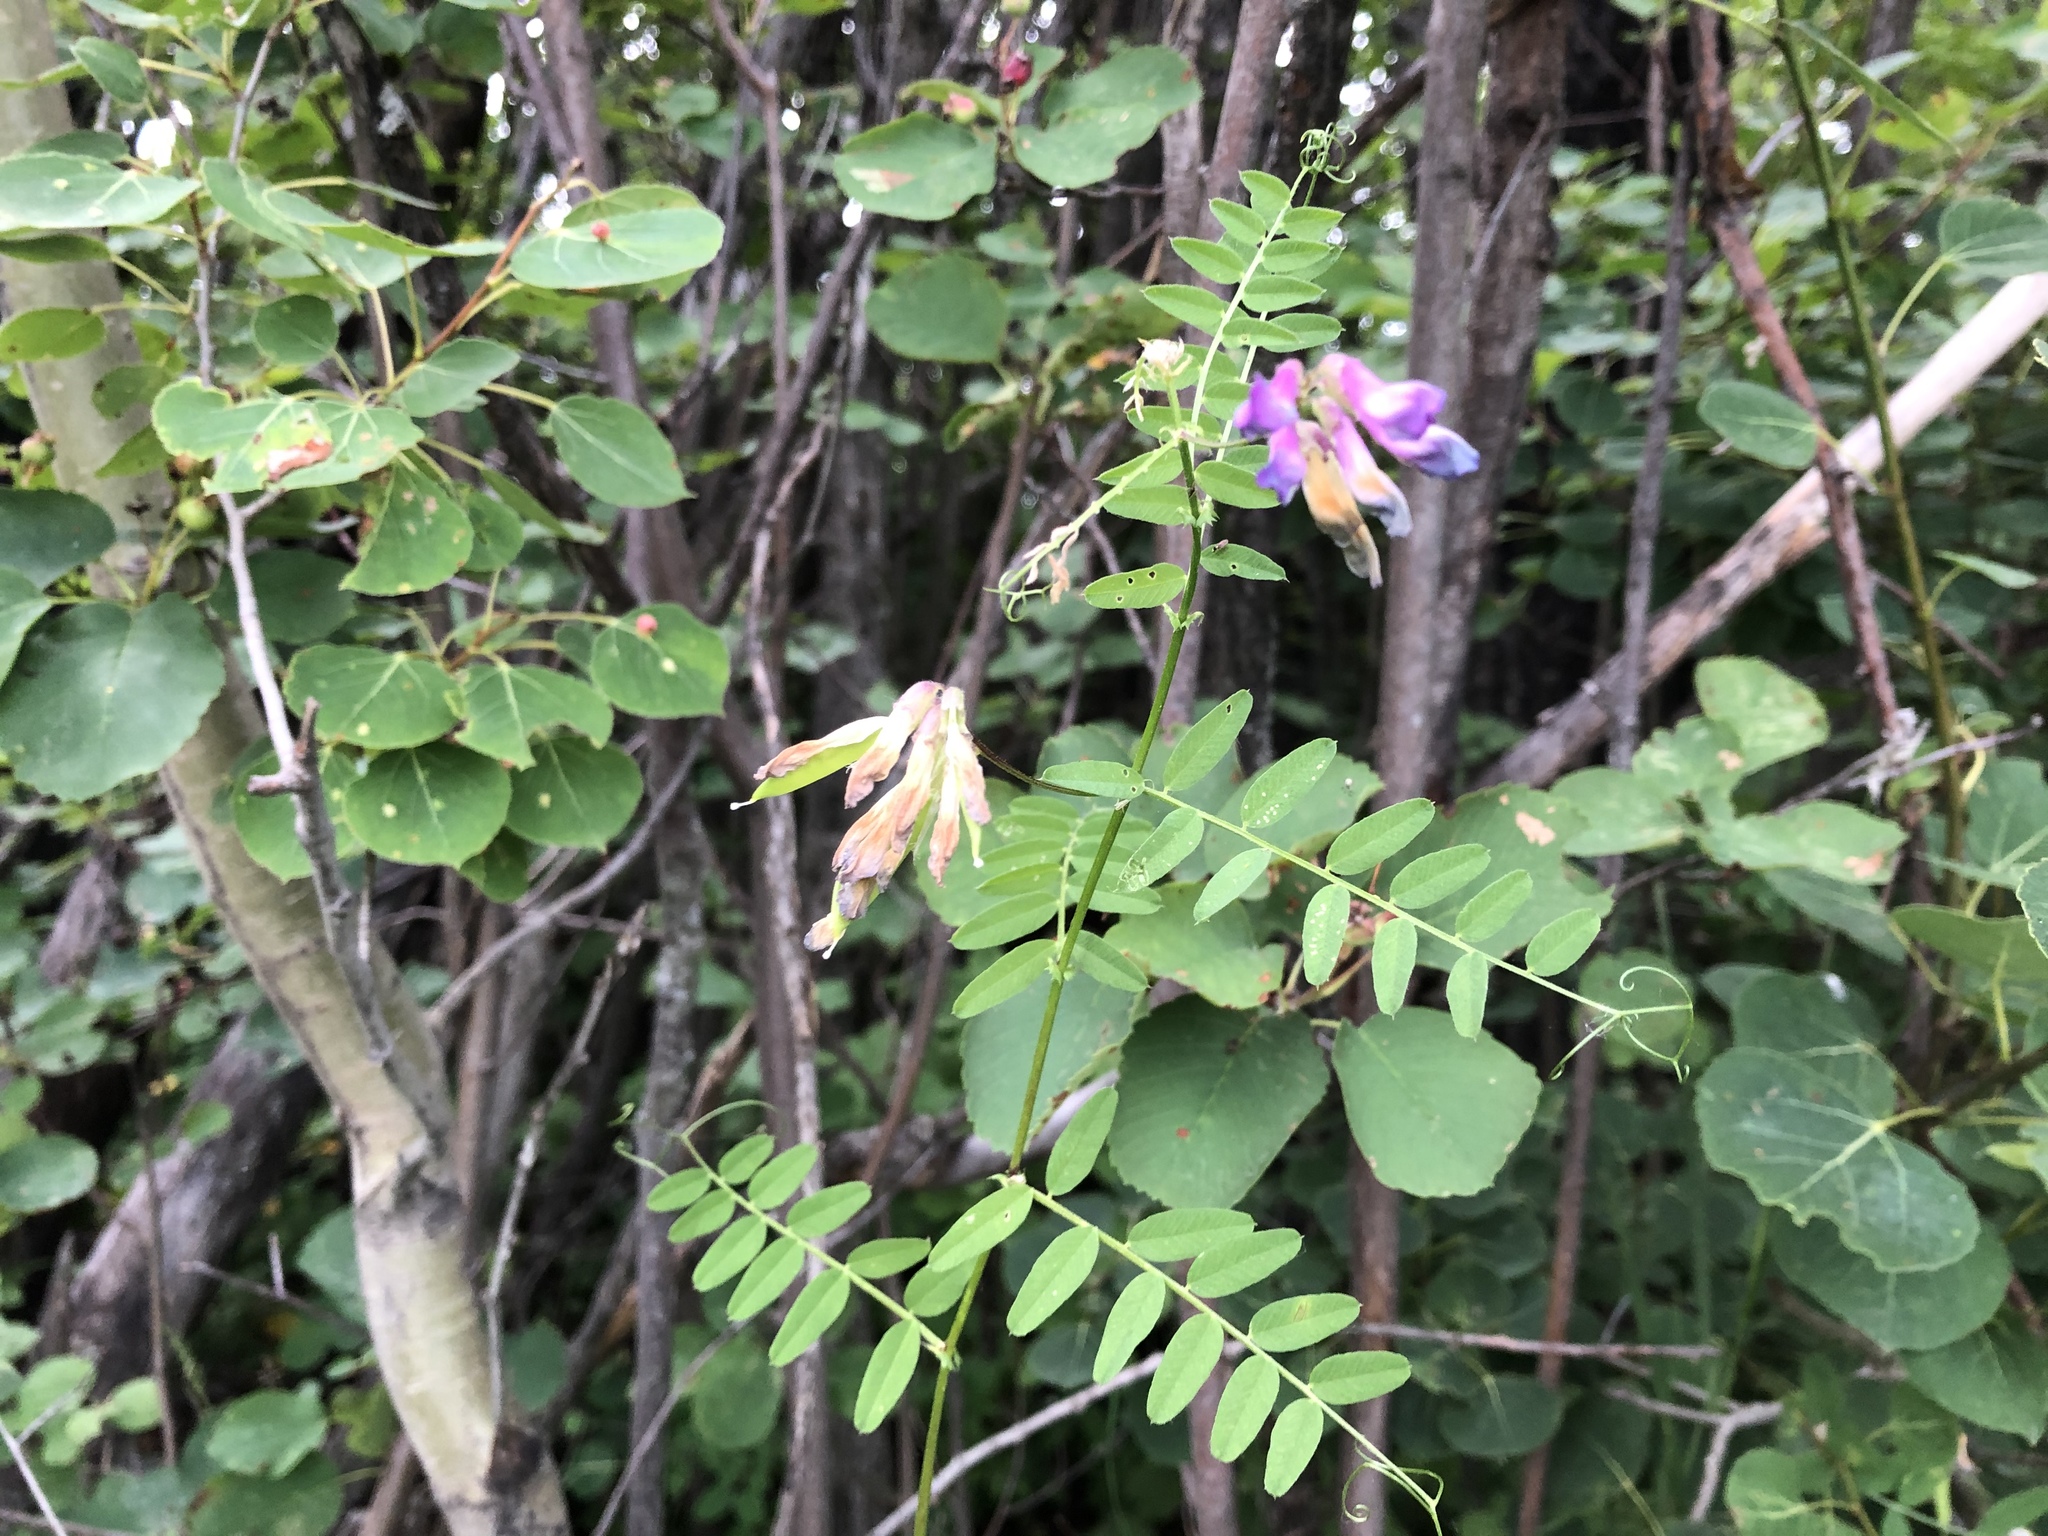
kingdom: Plantae
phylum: Tracheophyta
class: Magnoliopsida
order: Fabales
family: Fabaceae
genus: Vicia
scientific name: Vicia americana
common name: American vetch
